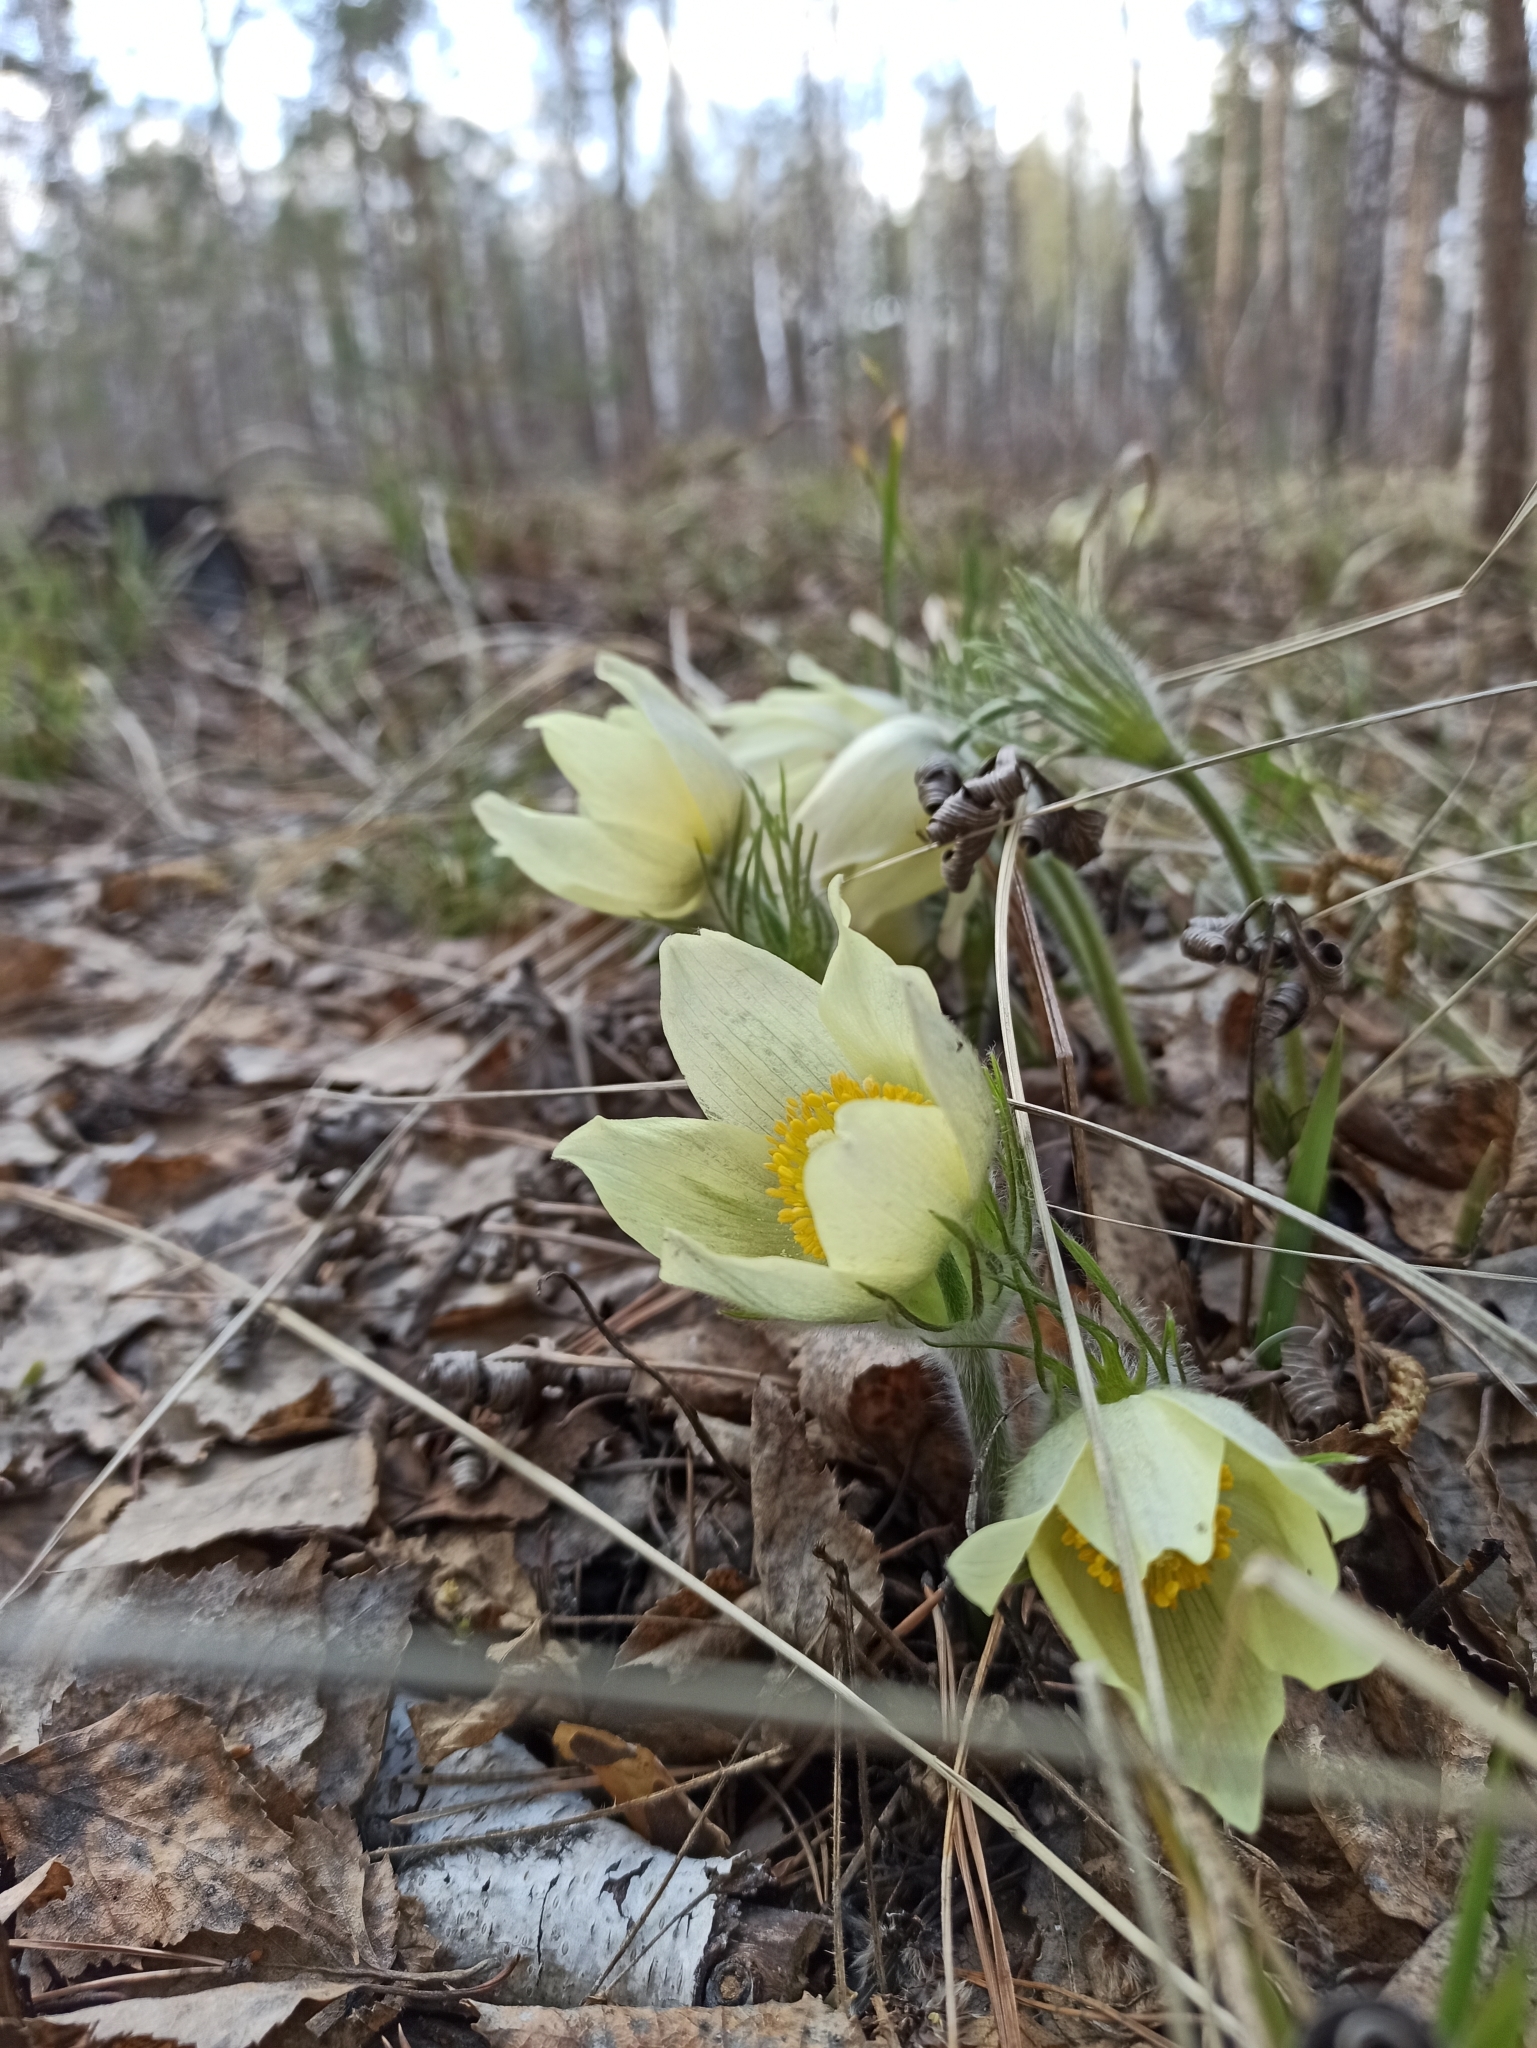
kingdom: Plantae
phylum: Tracheophyta
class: Magnoliopsida
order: Ranunculales
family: Ranunculaceae
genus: Pulsatilla
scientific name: Pulsatilla patens
